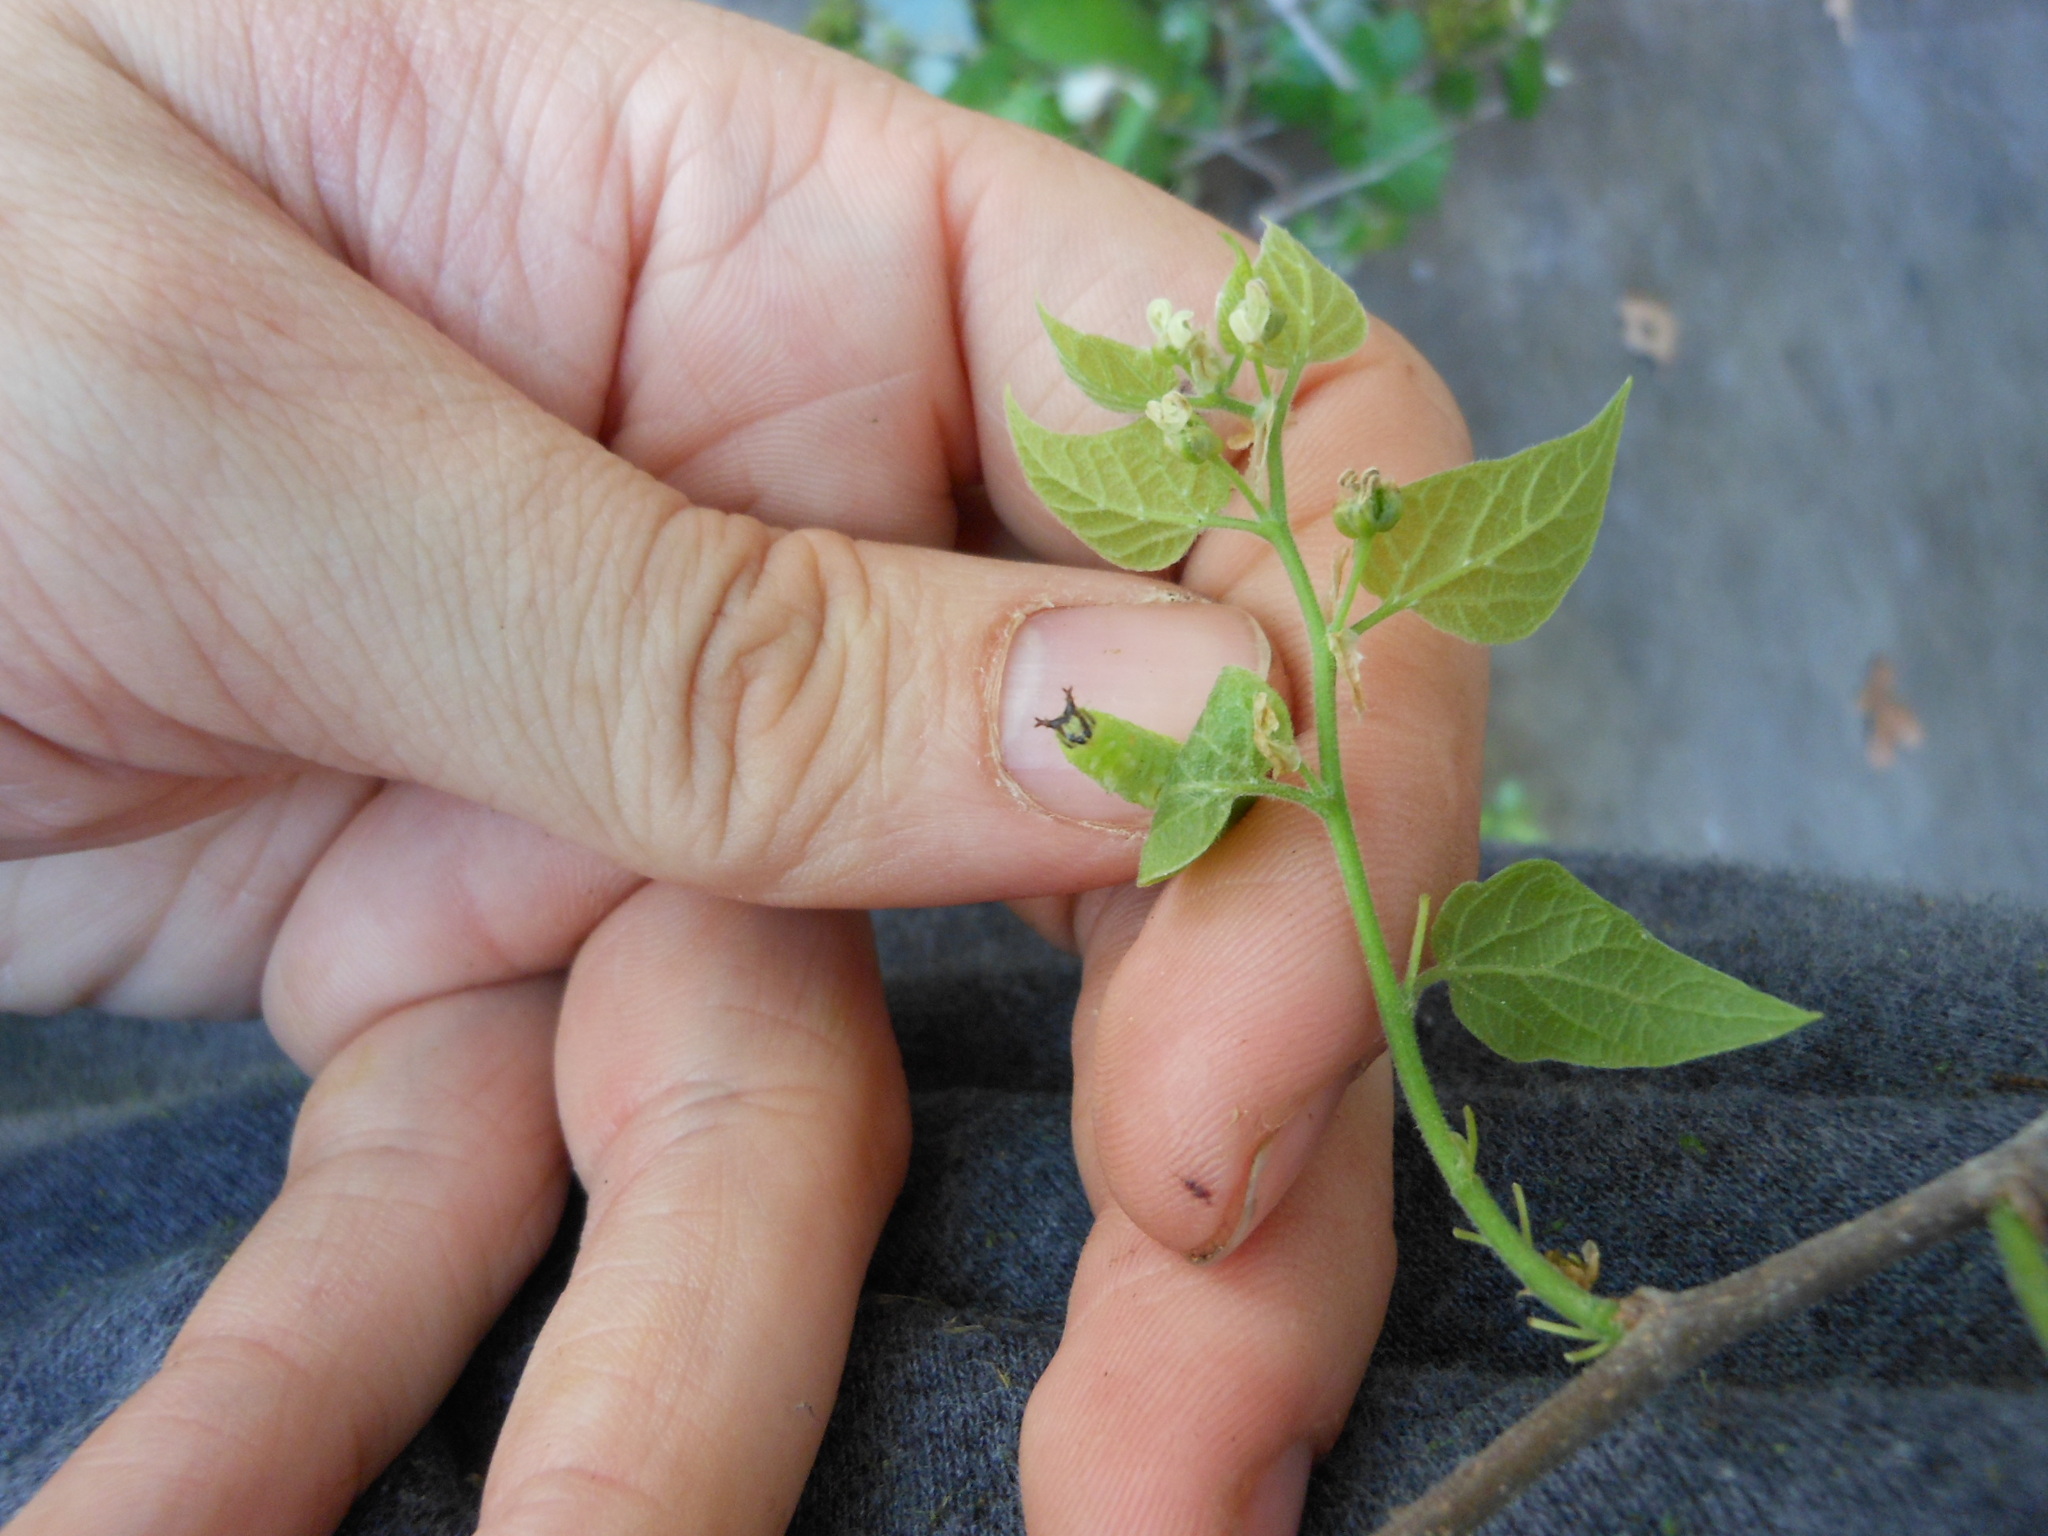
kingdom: Animalia
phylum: Arthropoda
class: Insecta
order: Lepidoptera
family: Nymphalidae
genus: Asterocampa
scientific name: Asterocampa celtis
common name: Hackberry emperor
